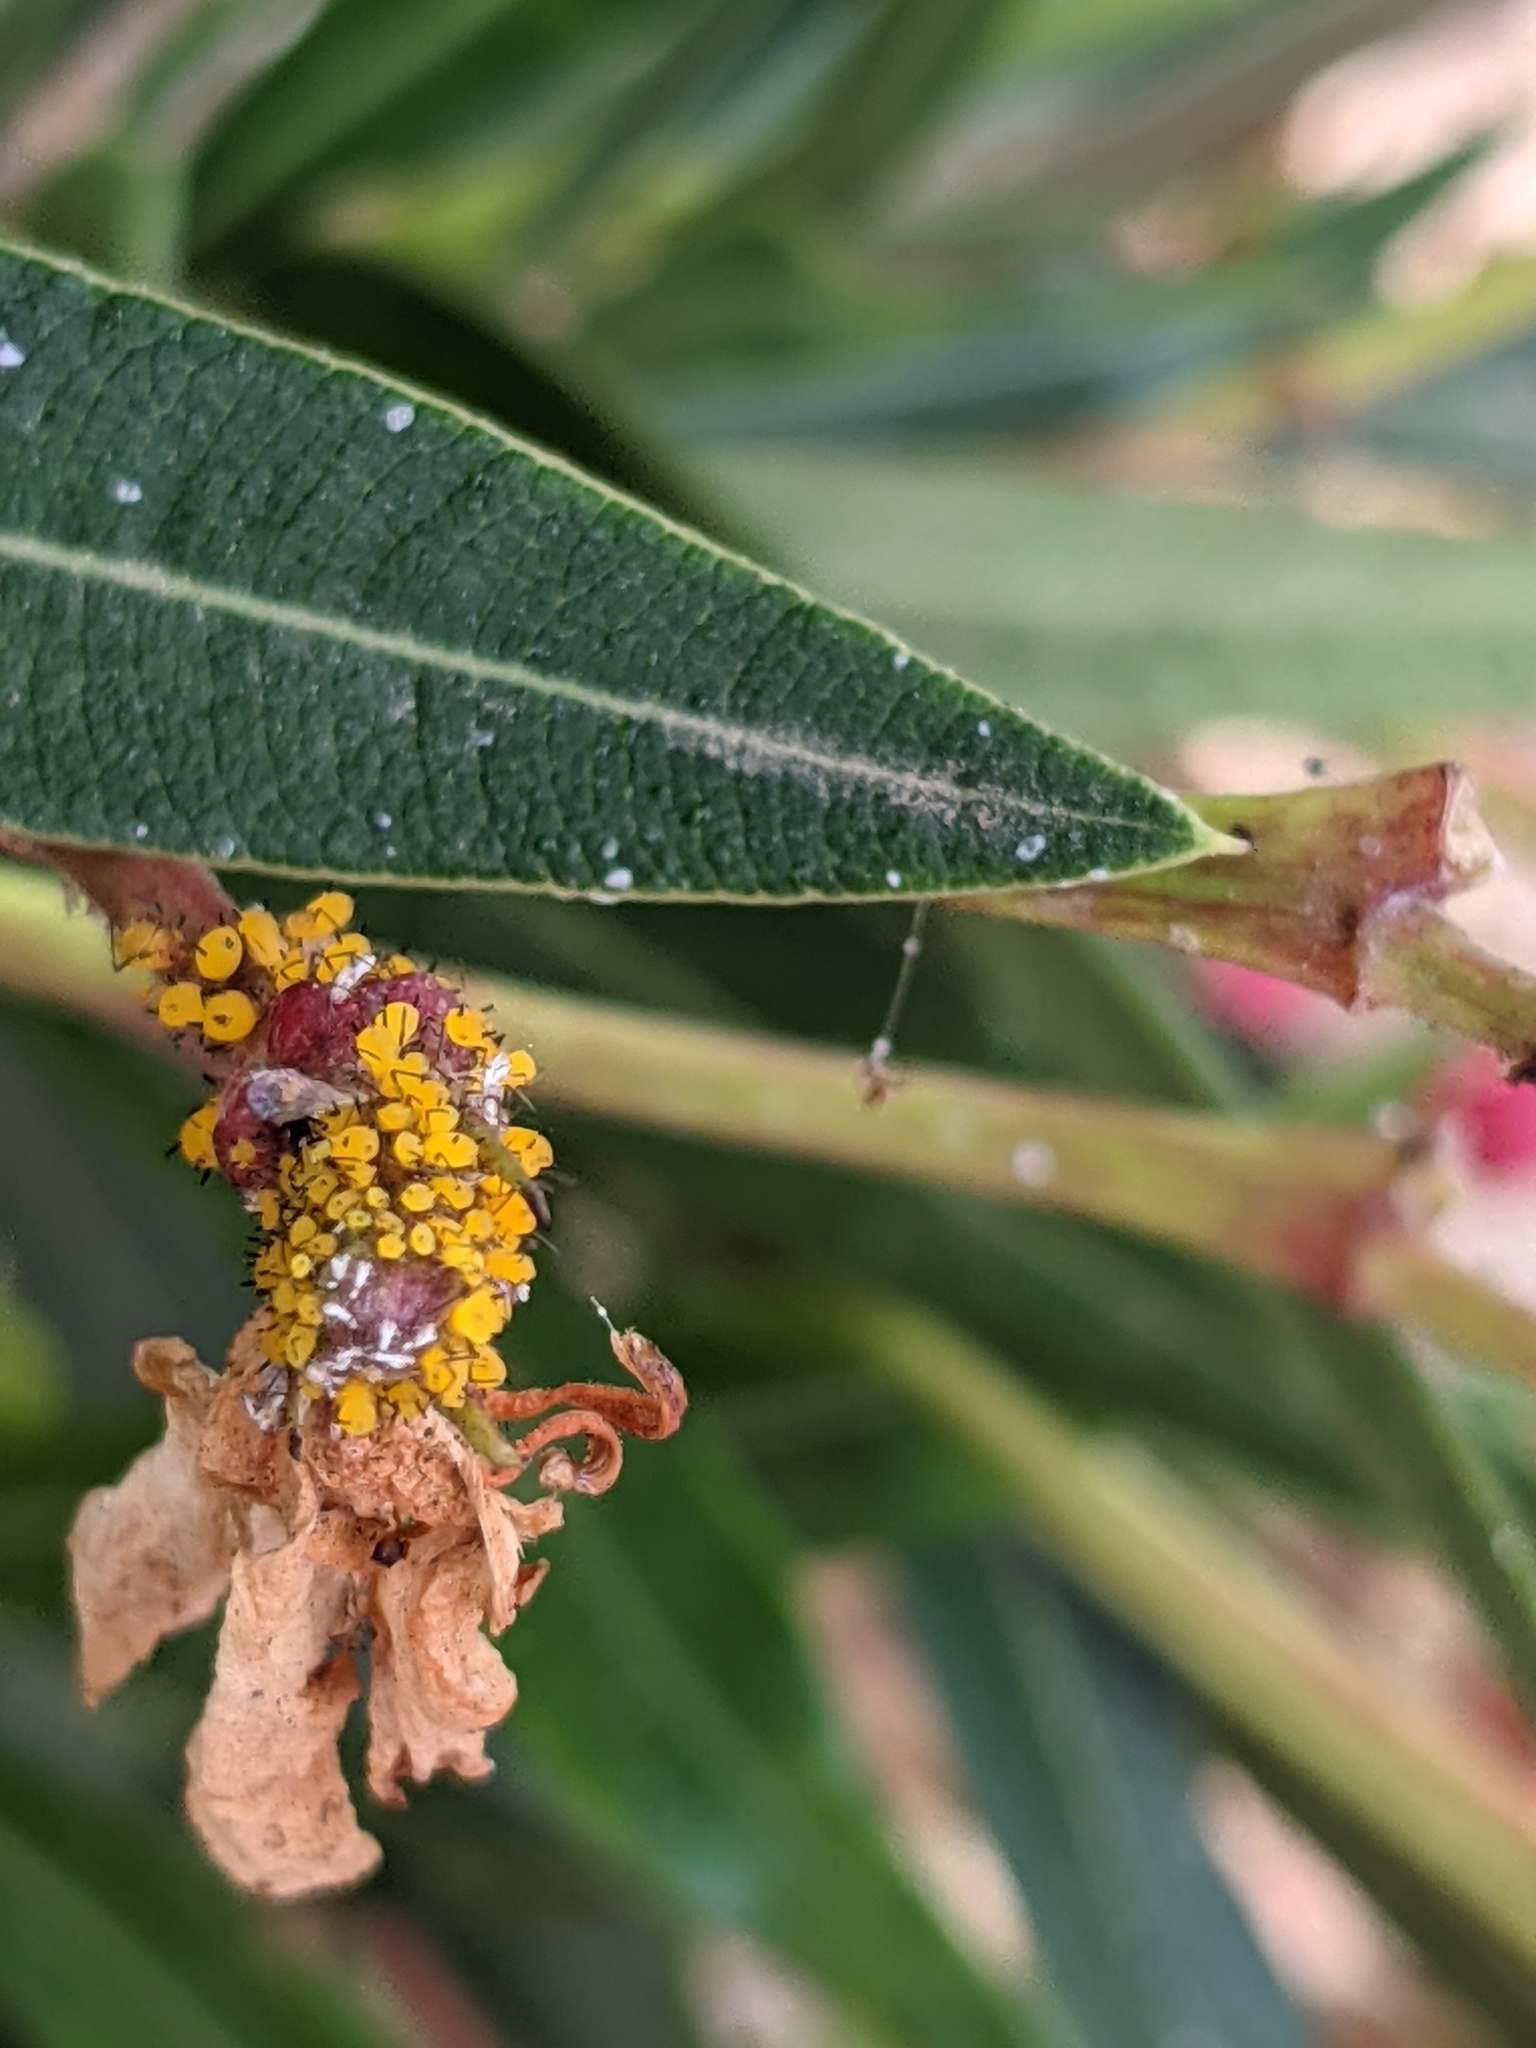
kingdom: Animalia
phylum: Arthropoda
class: Insecta
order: Hemiptera
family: Aphididae
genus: Aphis
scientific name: Aphis nerii
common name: Oleander aphid
